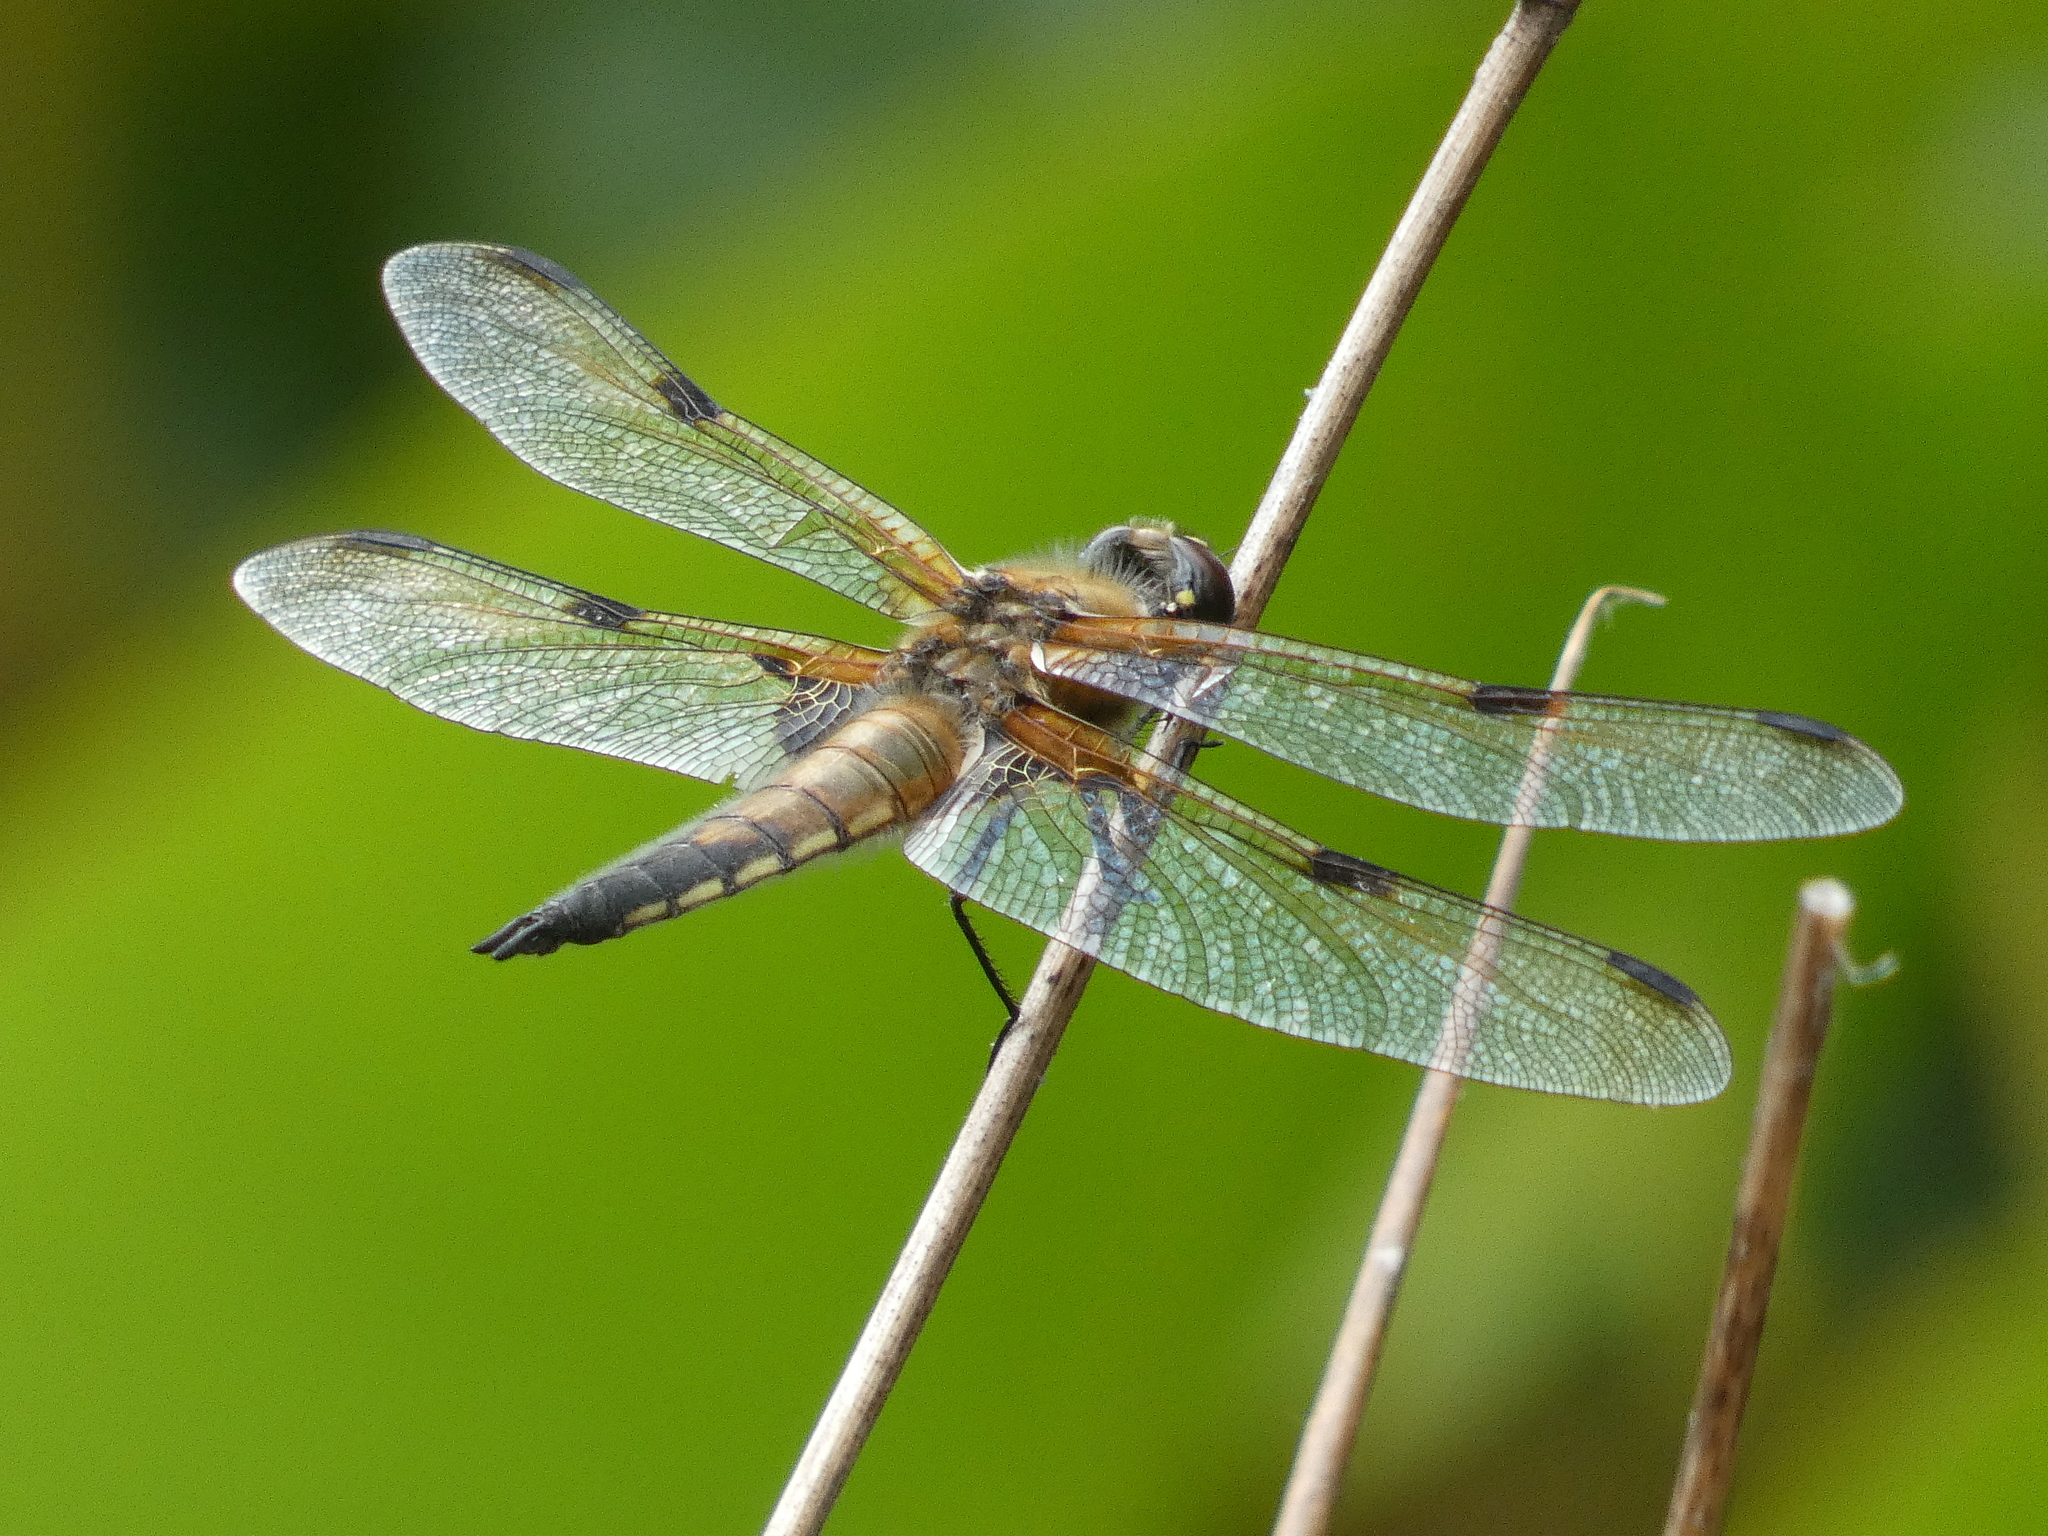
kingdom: Animalia
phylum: Arthropoda
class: Insecta
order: Odonata
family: Libellulidae
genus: Libellula
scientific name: Libellula quadrimaculata
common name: Four-spotted chaser
